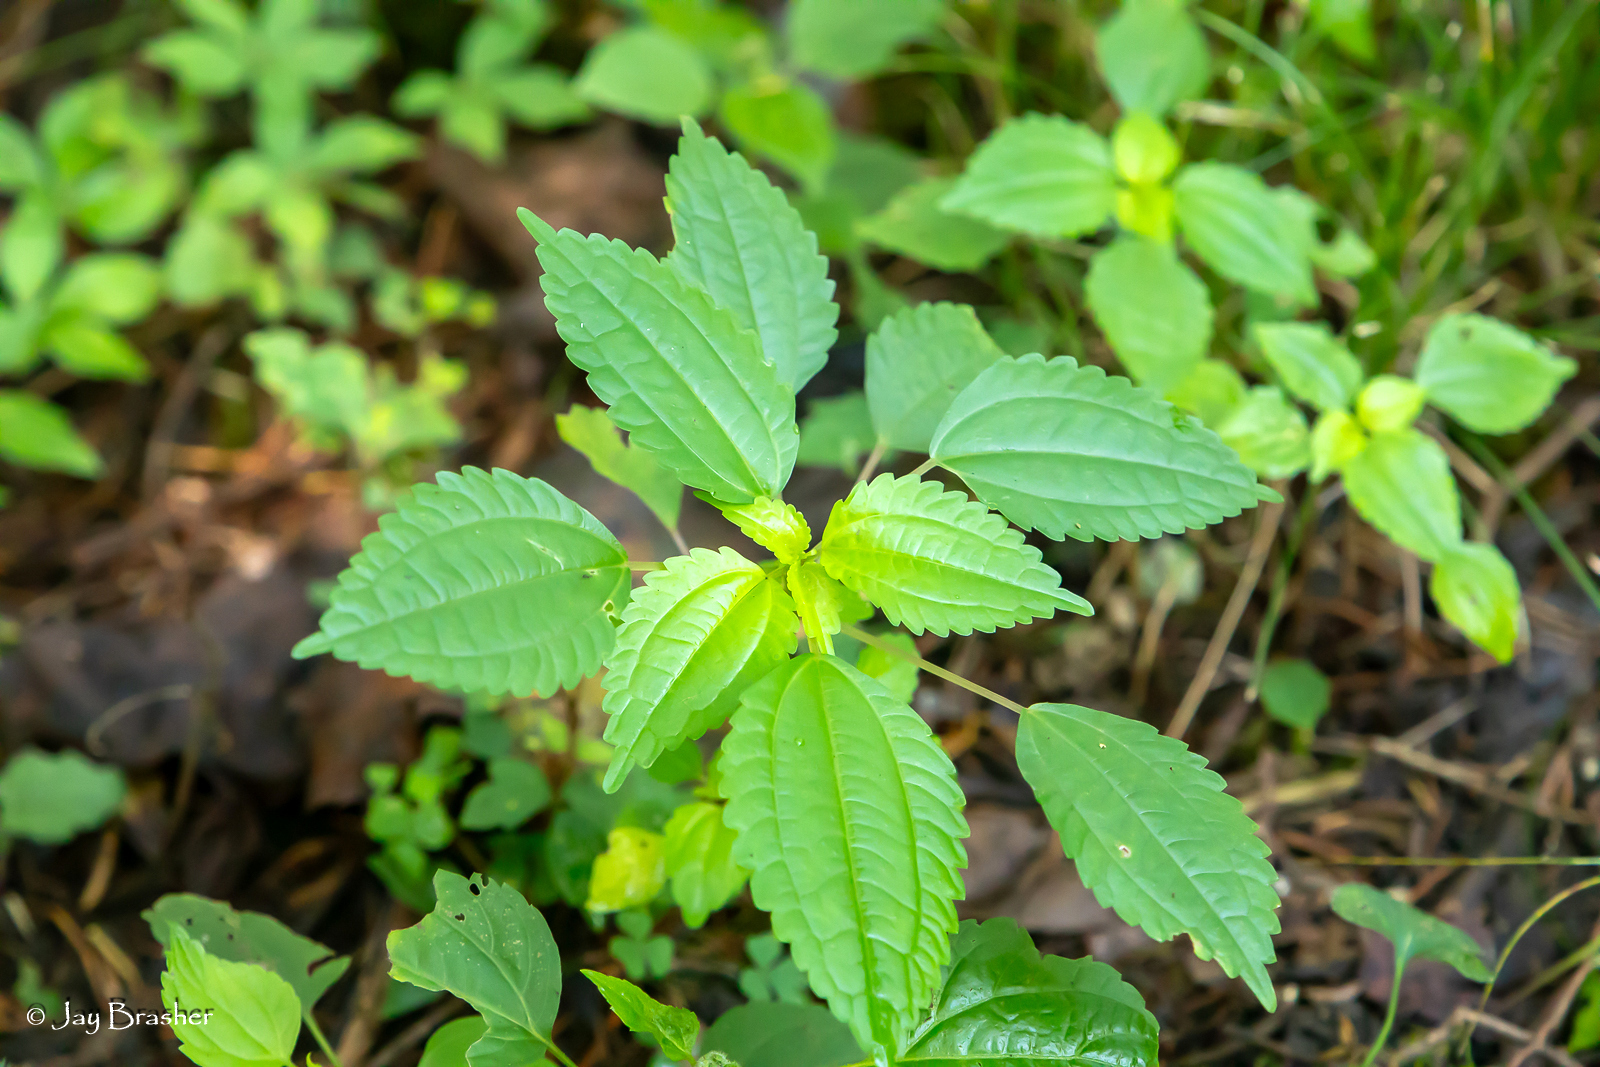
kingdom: Plantae
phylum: Tracheophyta
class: Magnoliopsida
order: Rosales
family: Urticaceae
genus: Pilea
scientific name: Pilea pumila
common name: Clearweed
